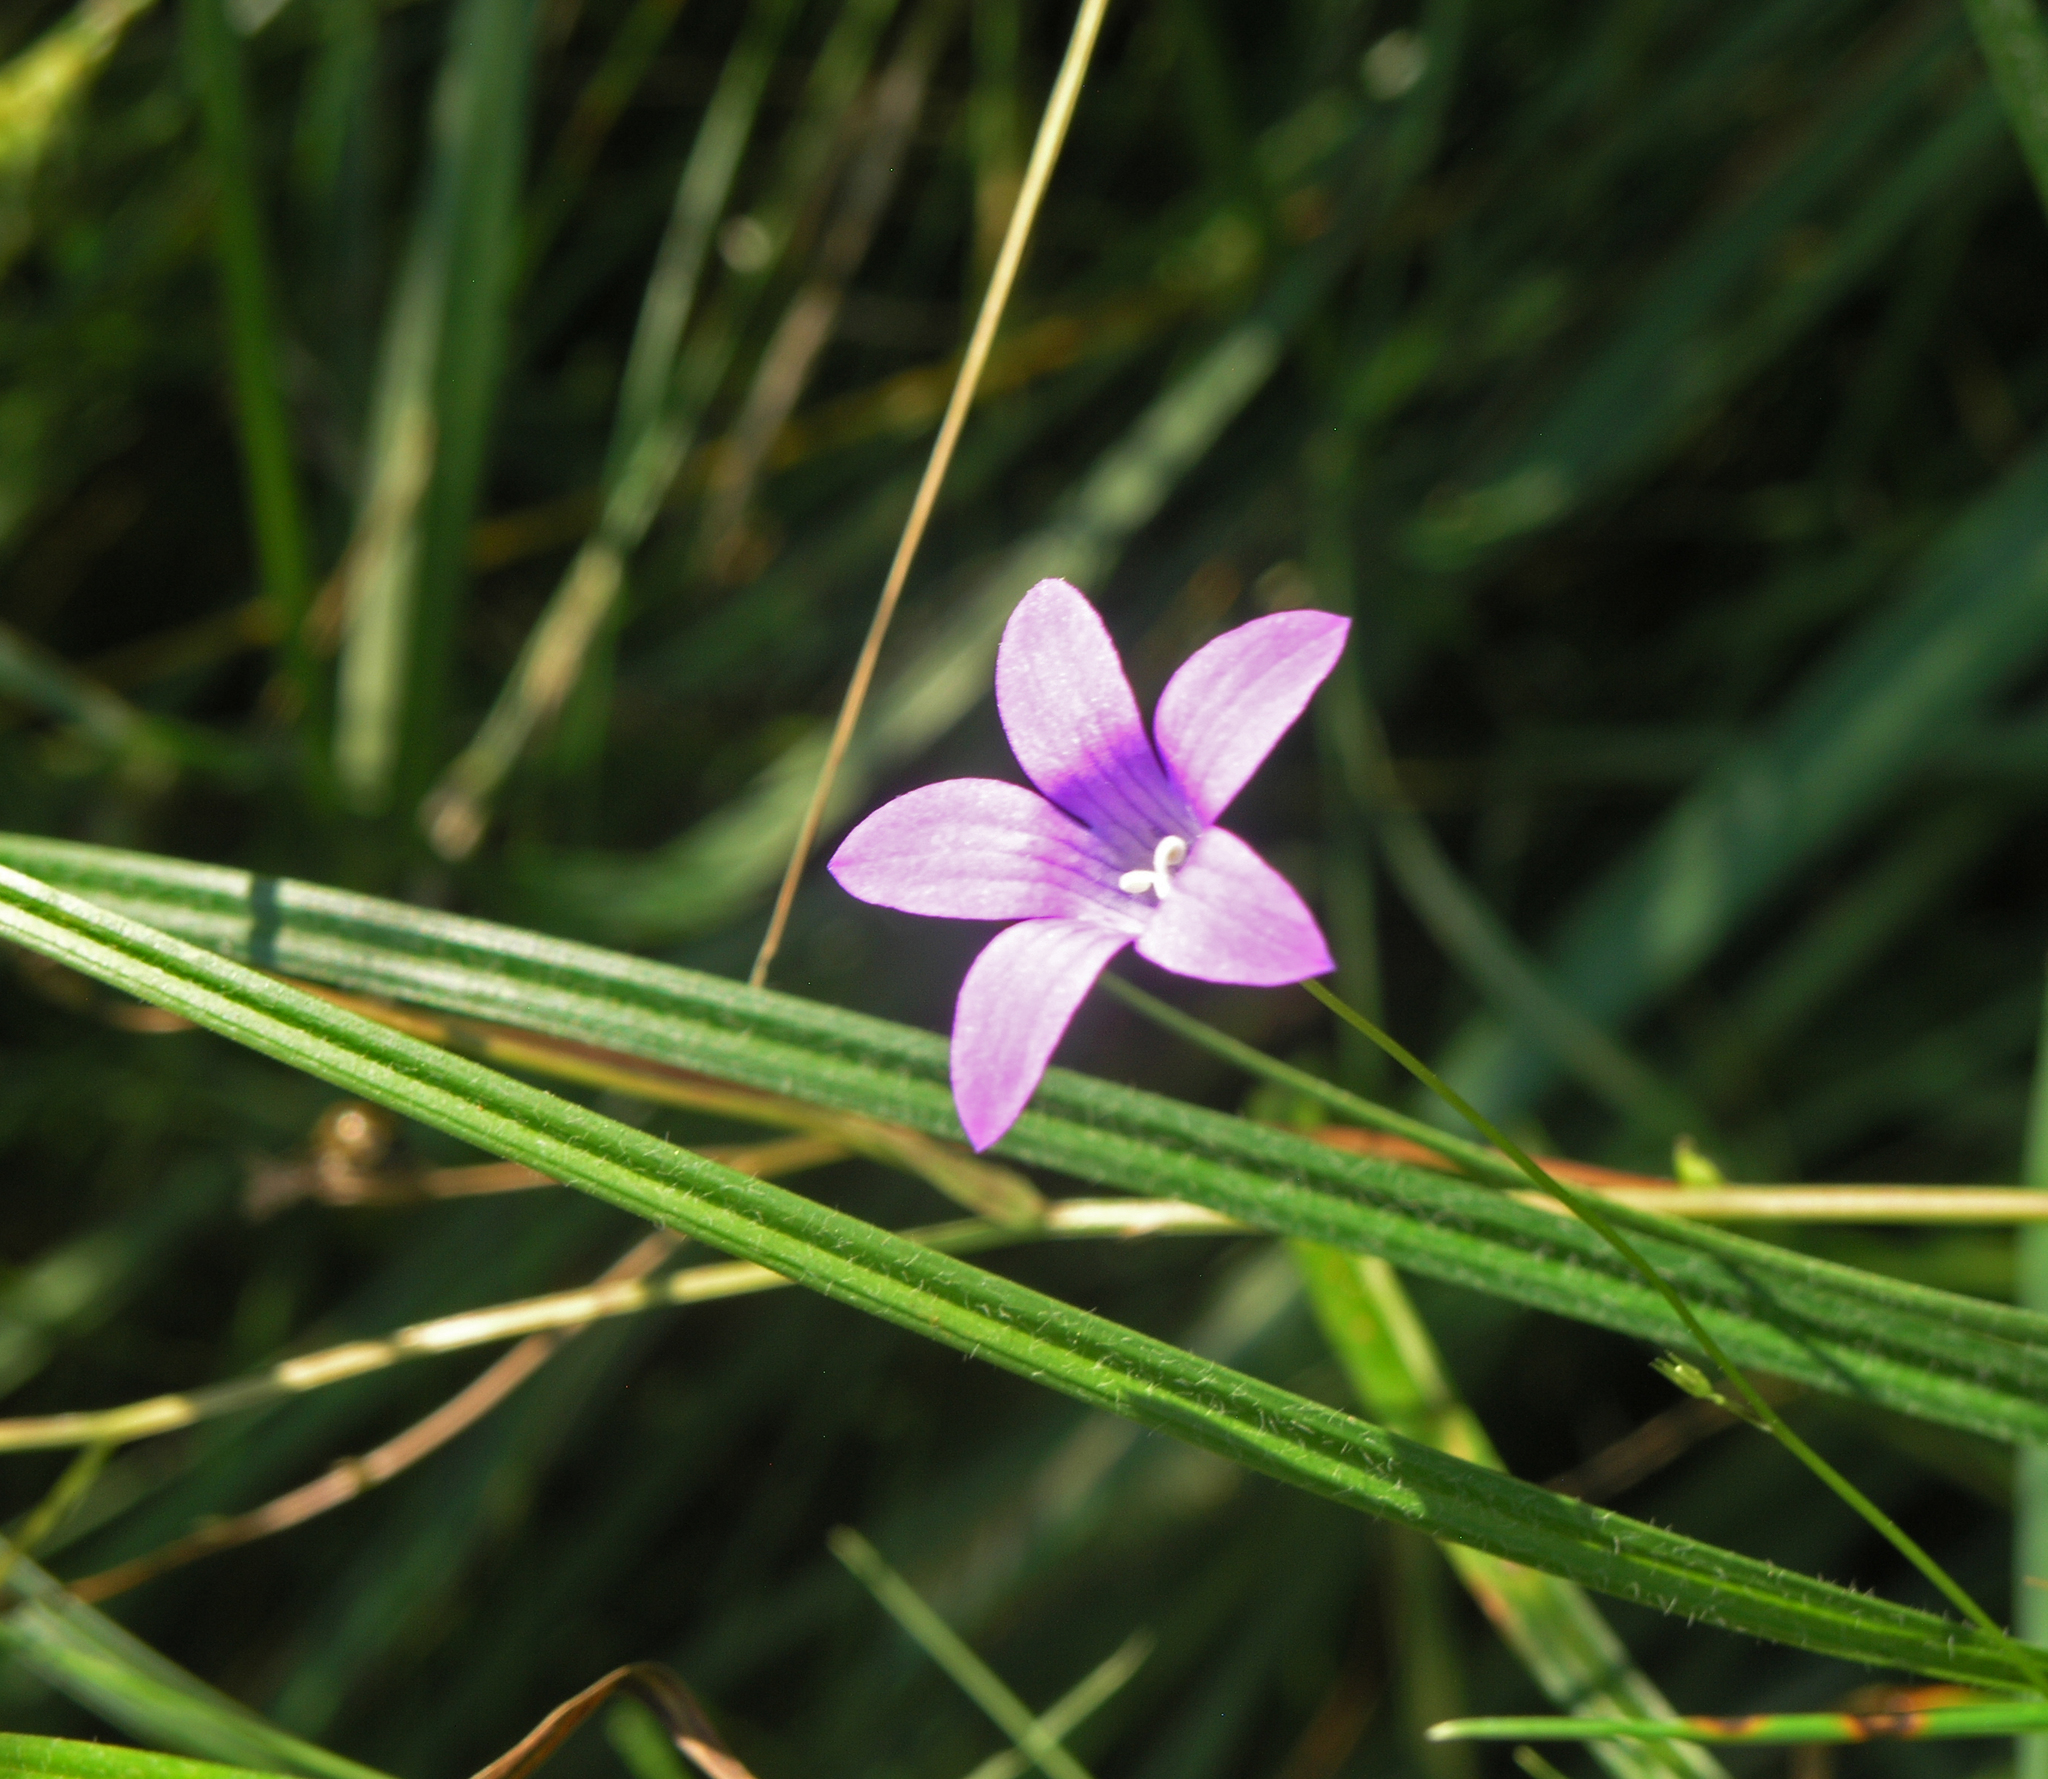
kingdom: Plantae
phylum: Tracheophyta
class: Magnoliopsida
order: Asterales
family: Campanulaceae
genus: Campanula
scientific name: Campanula patula
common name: Spreading bellflower
